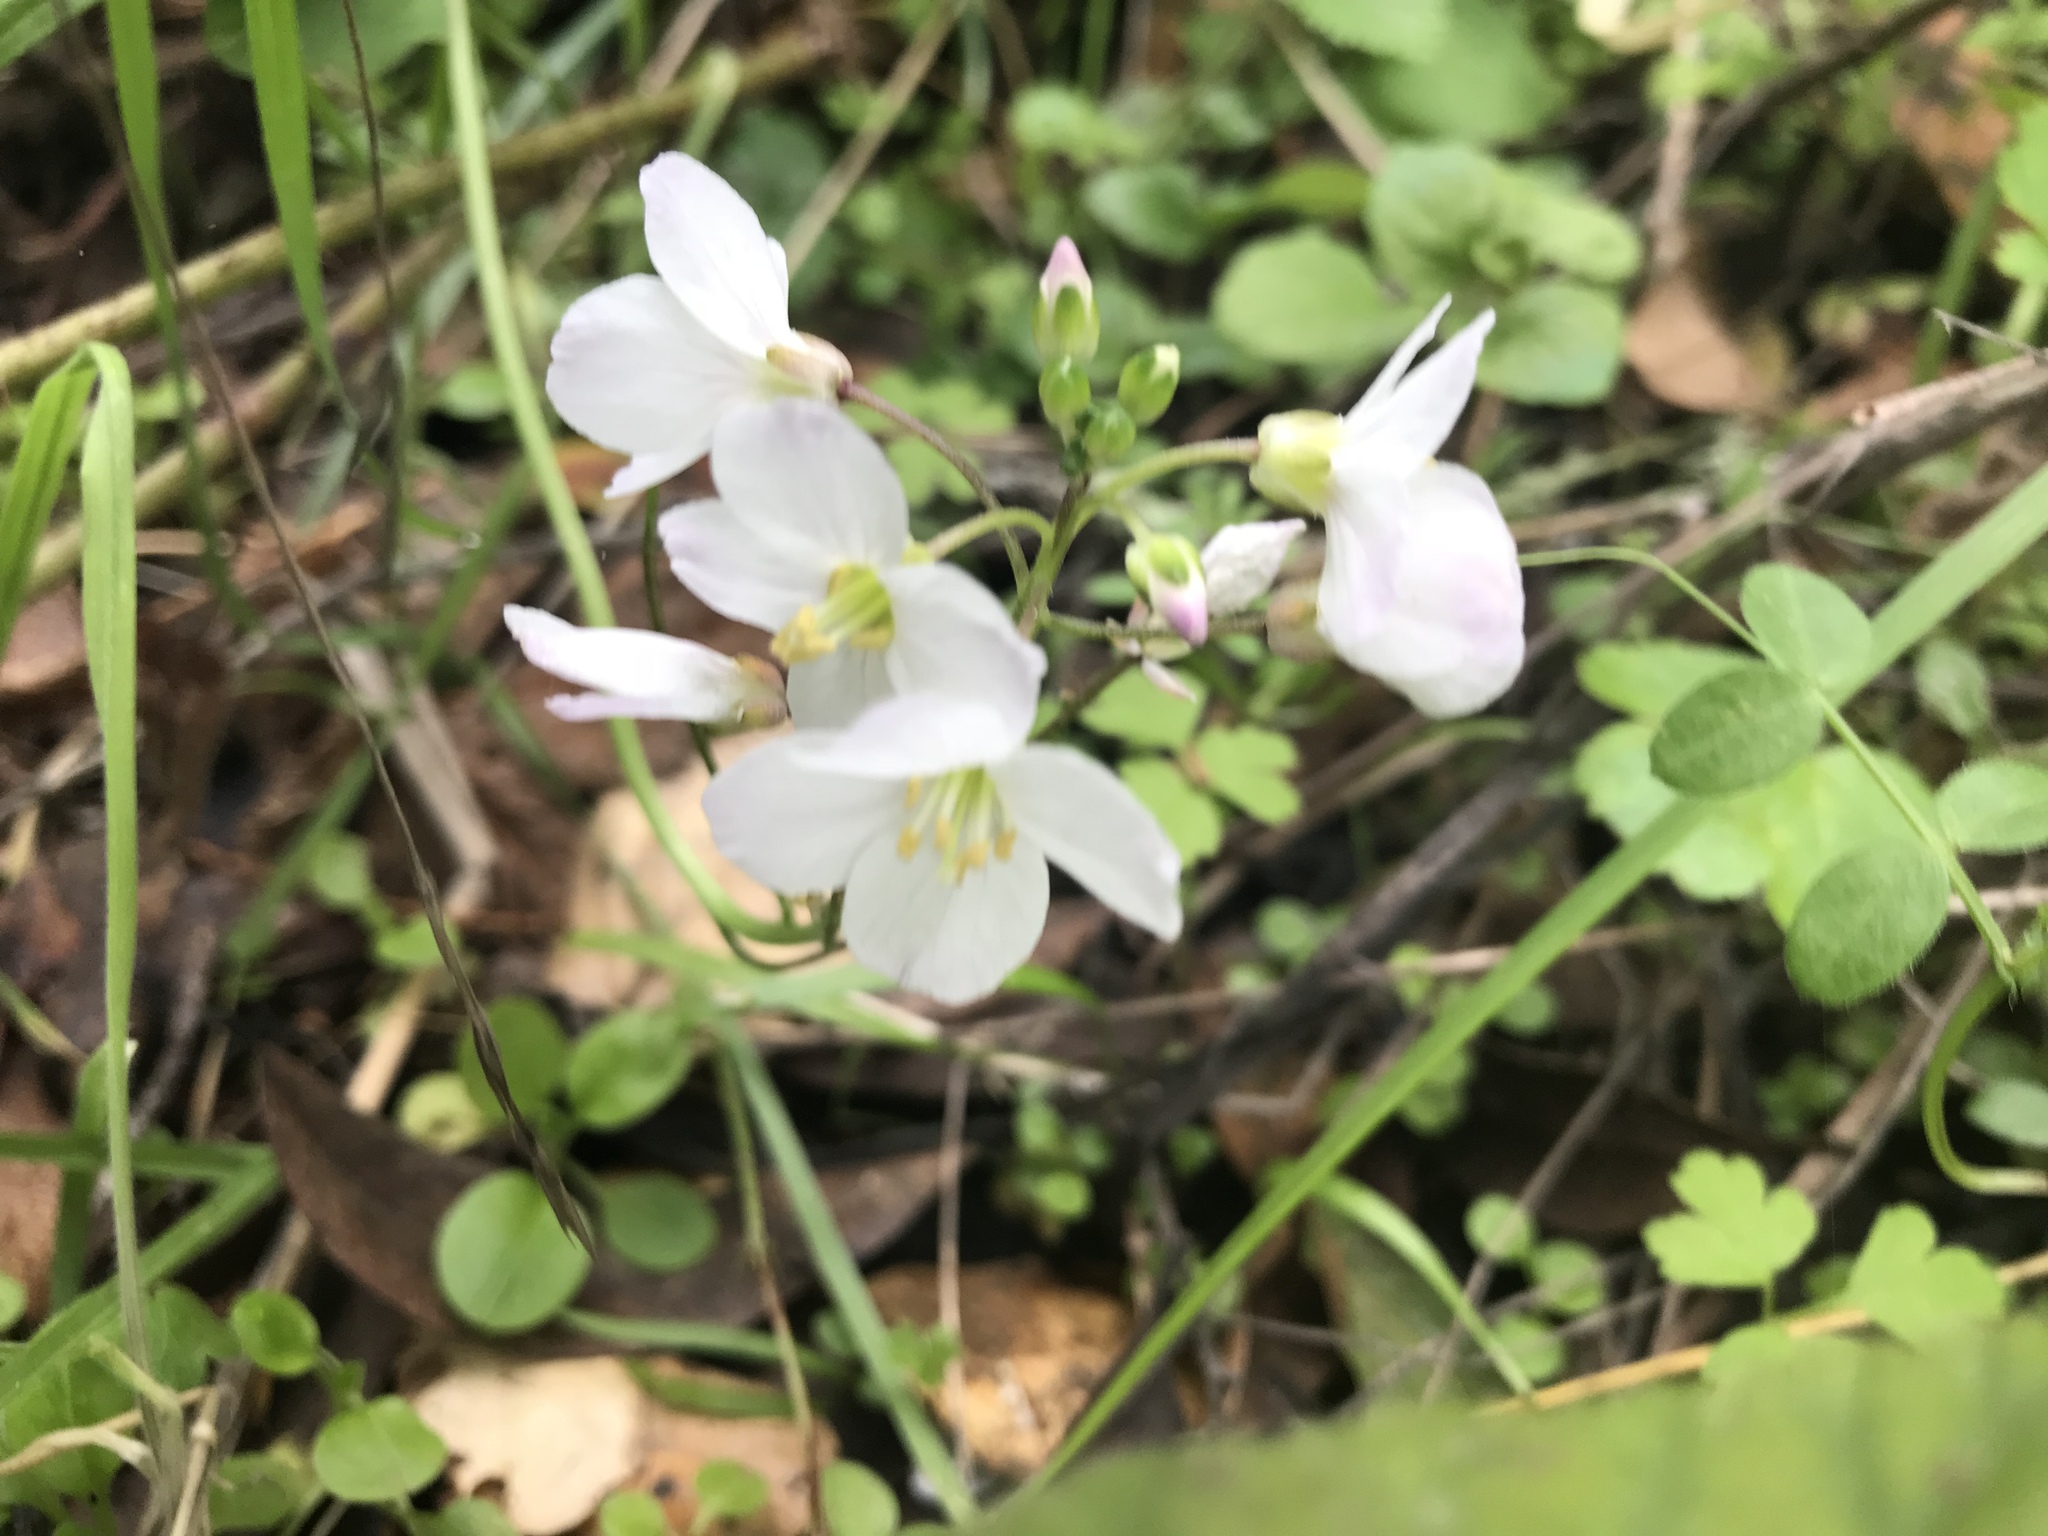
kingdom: Plantae
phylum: Tracheophyta
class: Magnoliopsida
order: Brassicales
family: Brassicaceae
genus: Cardamine
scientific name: Cardamine californica
